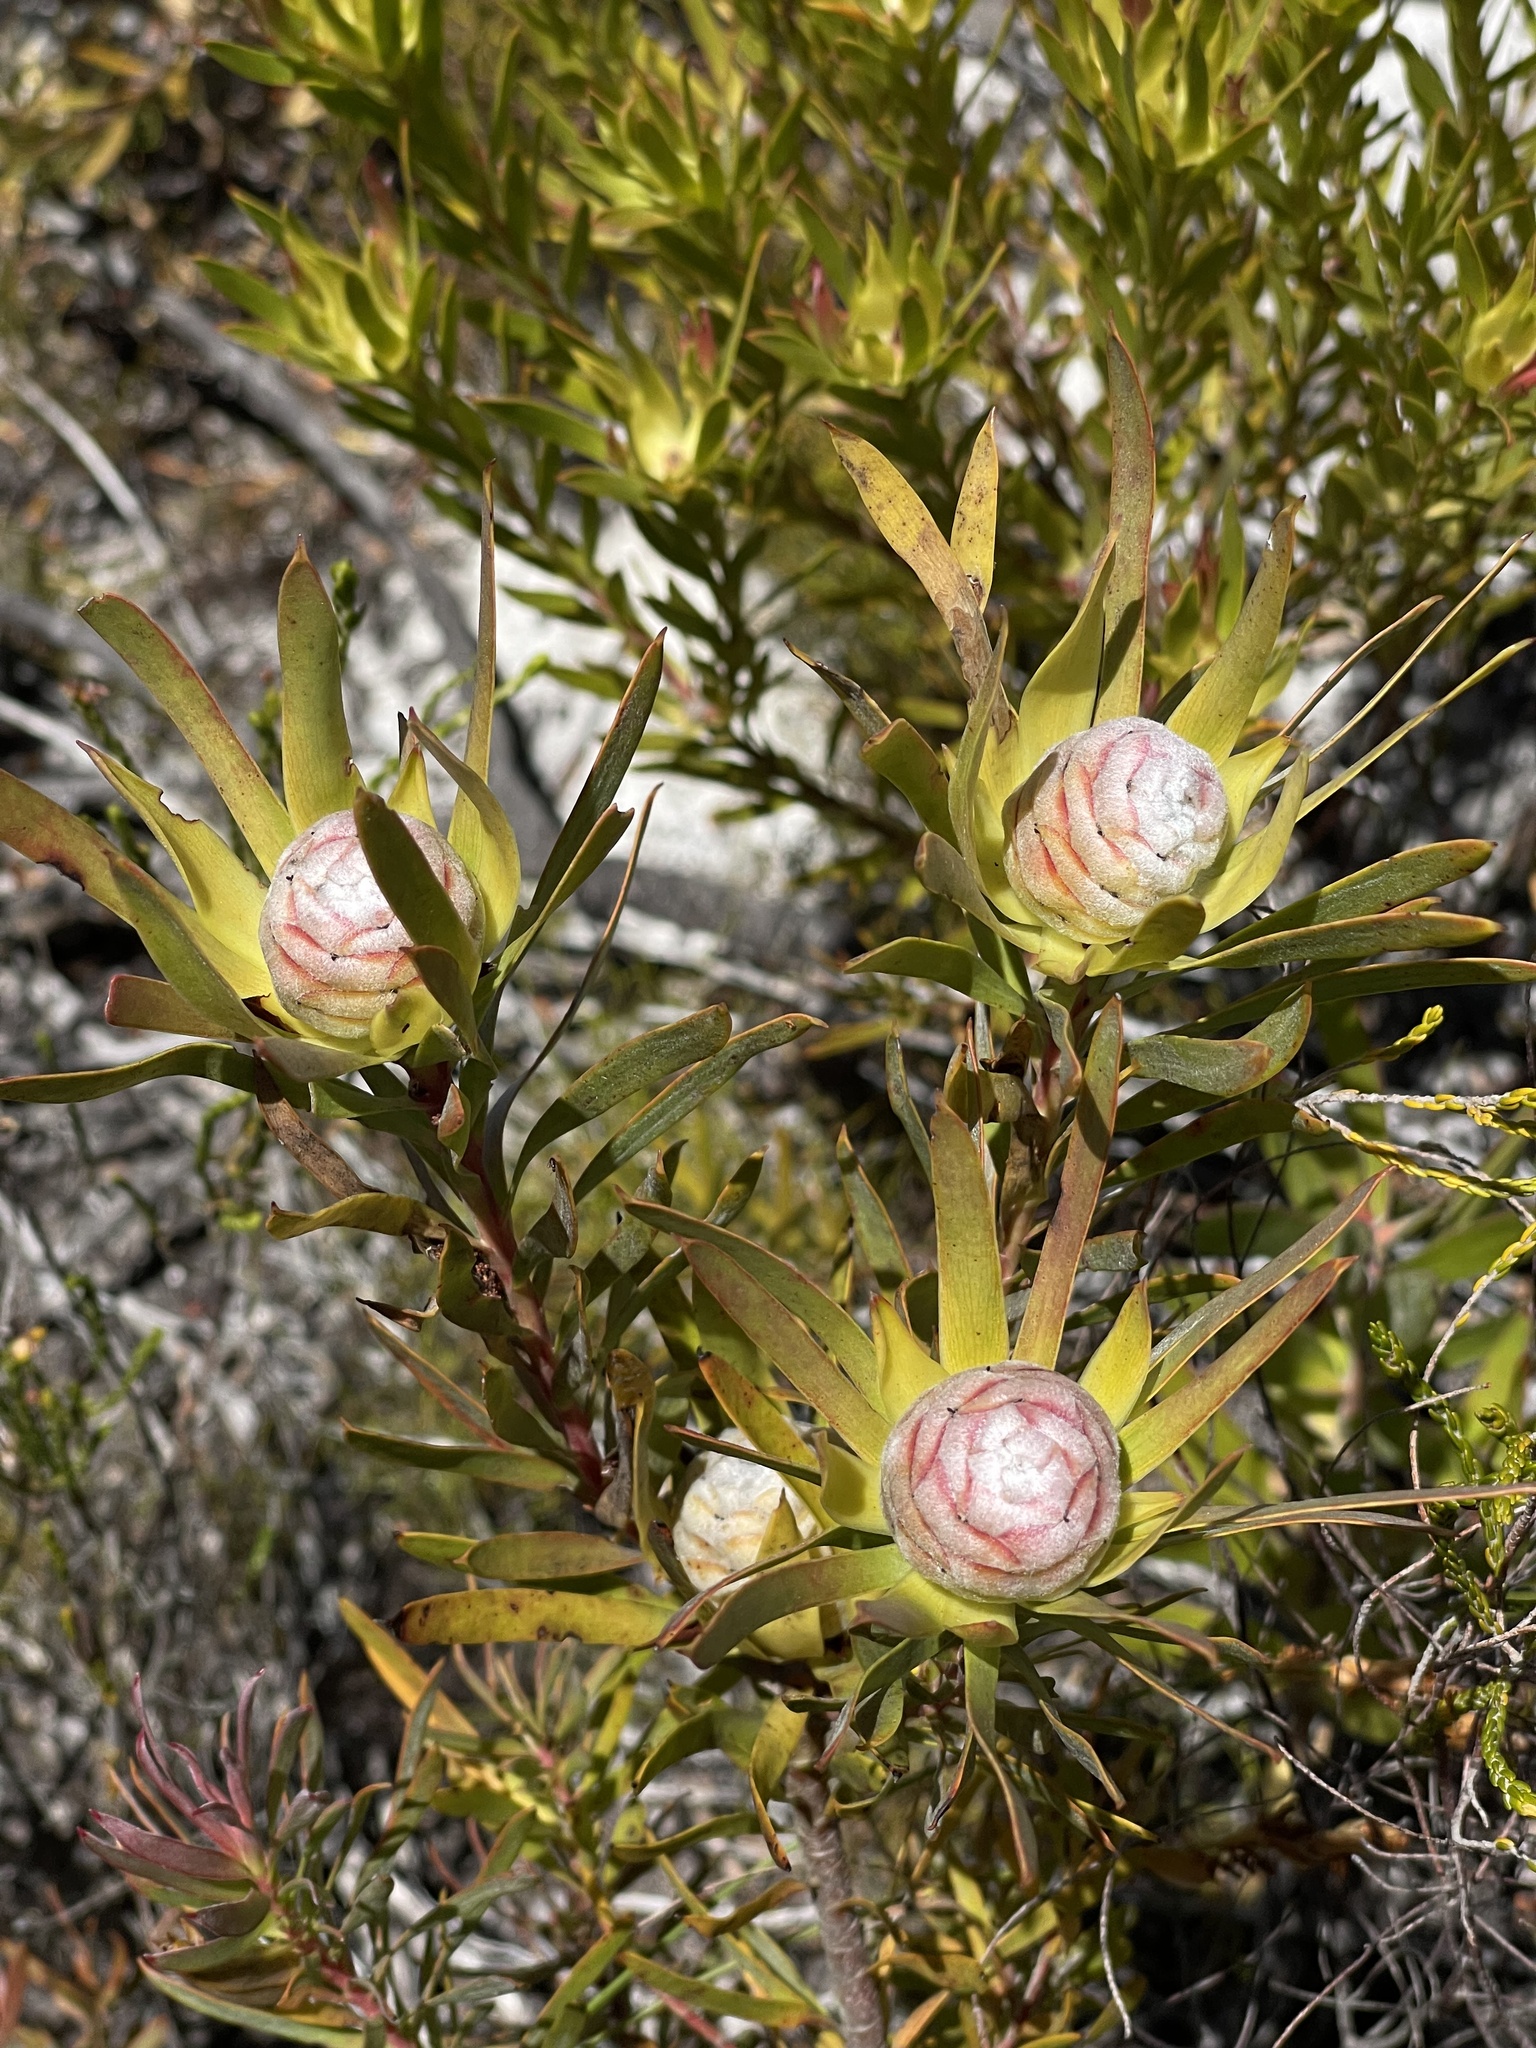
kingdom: Plantae
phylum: Tracheophyta
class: Magnoliopsida
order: Proteales
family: Proteaceae
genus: Leucadendron
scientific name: Leucadendron xanthoconus
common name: Sickle-leaf conebush
